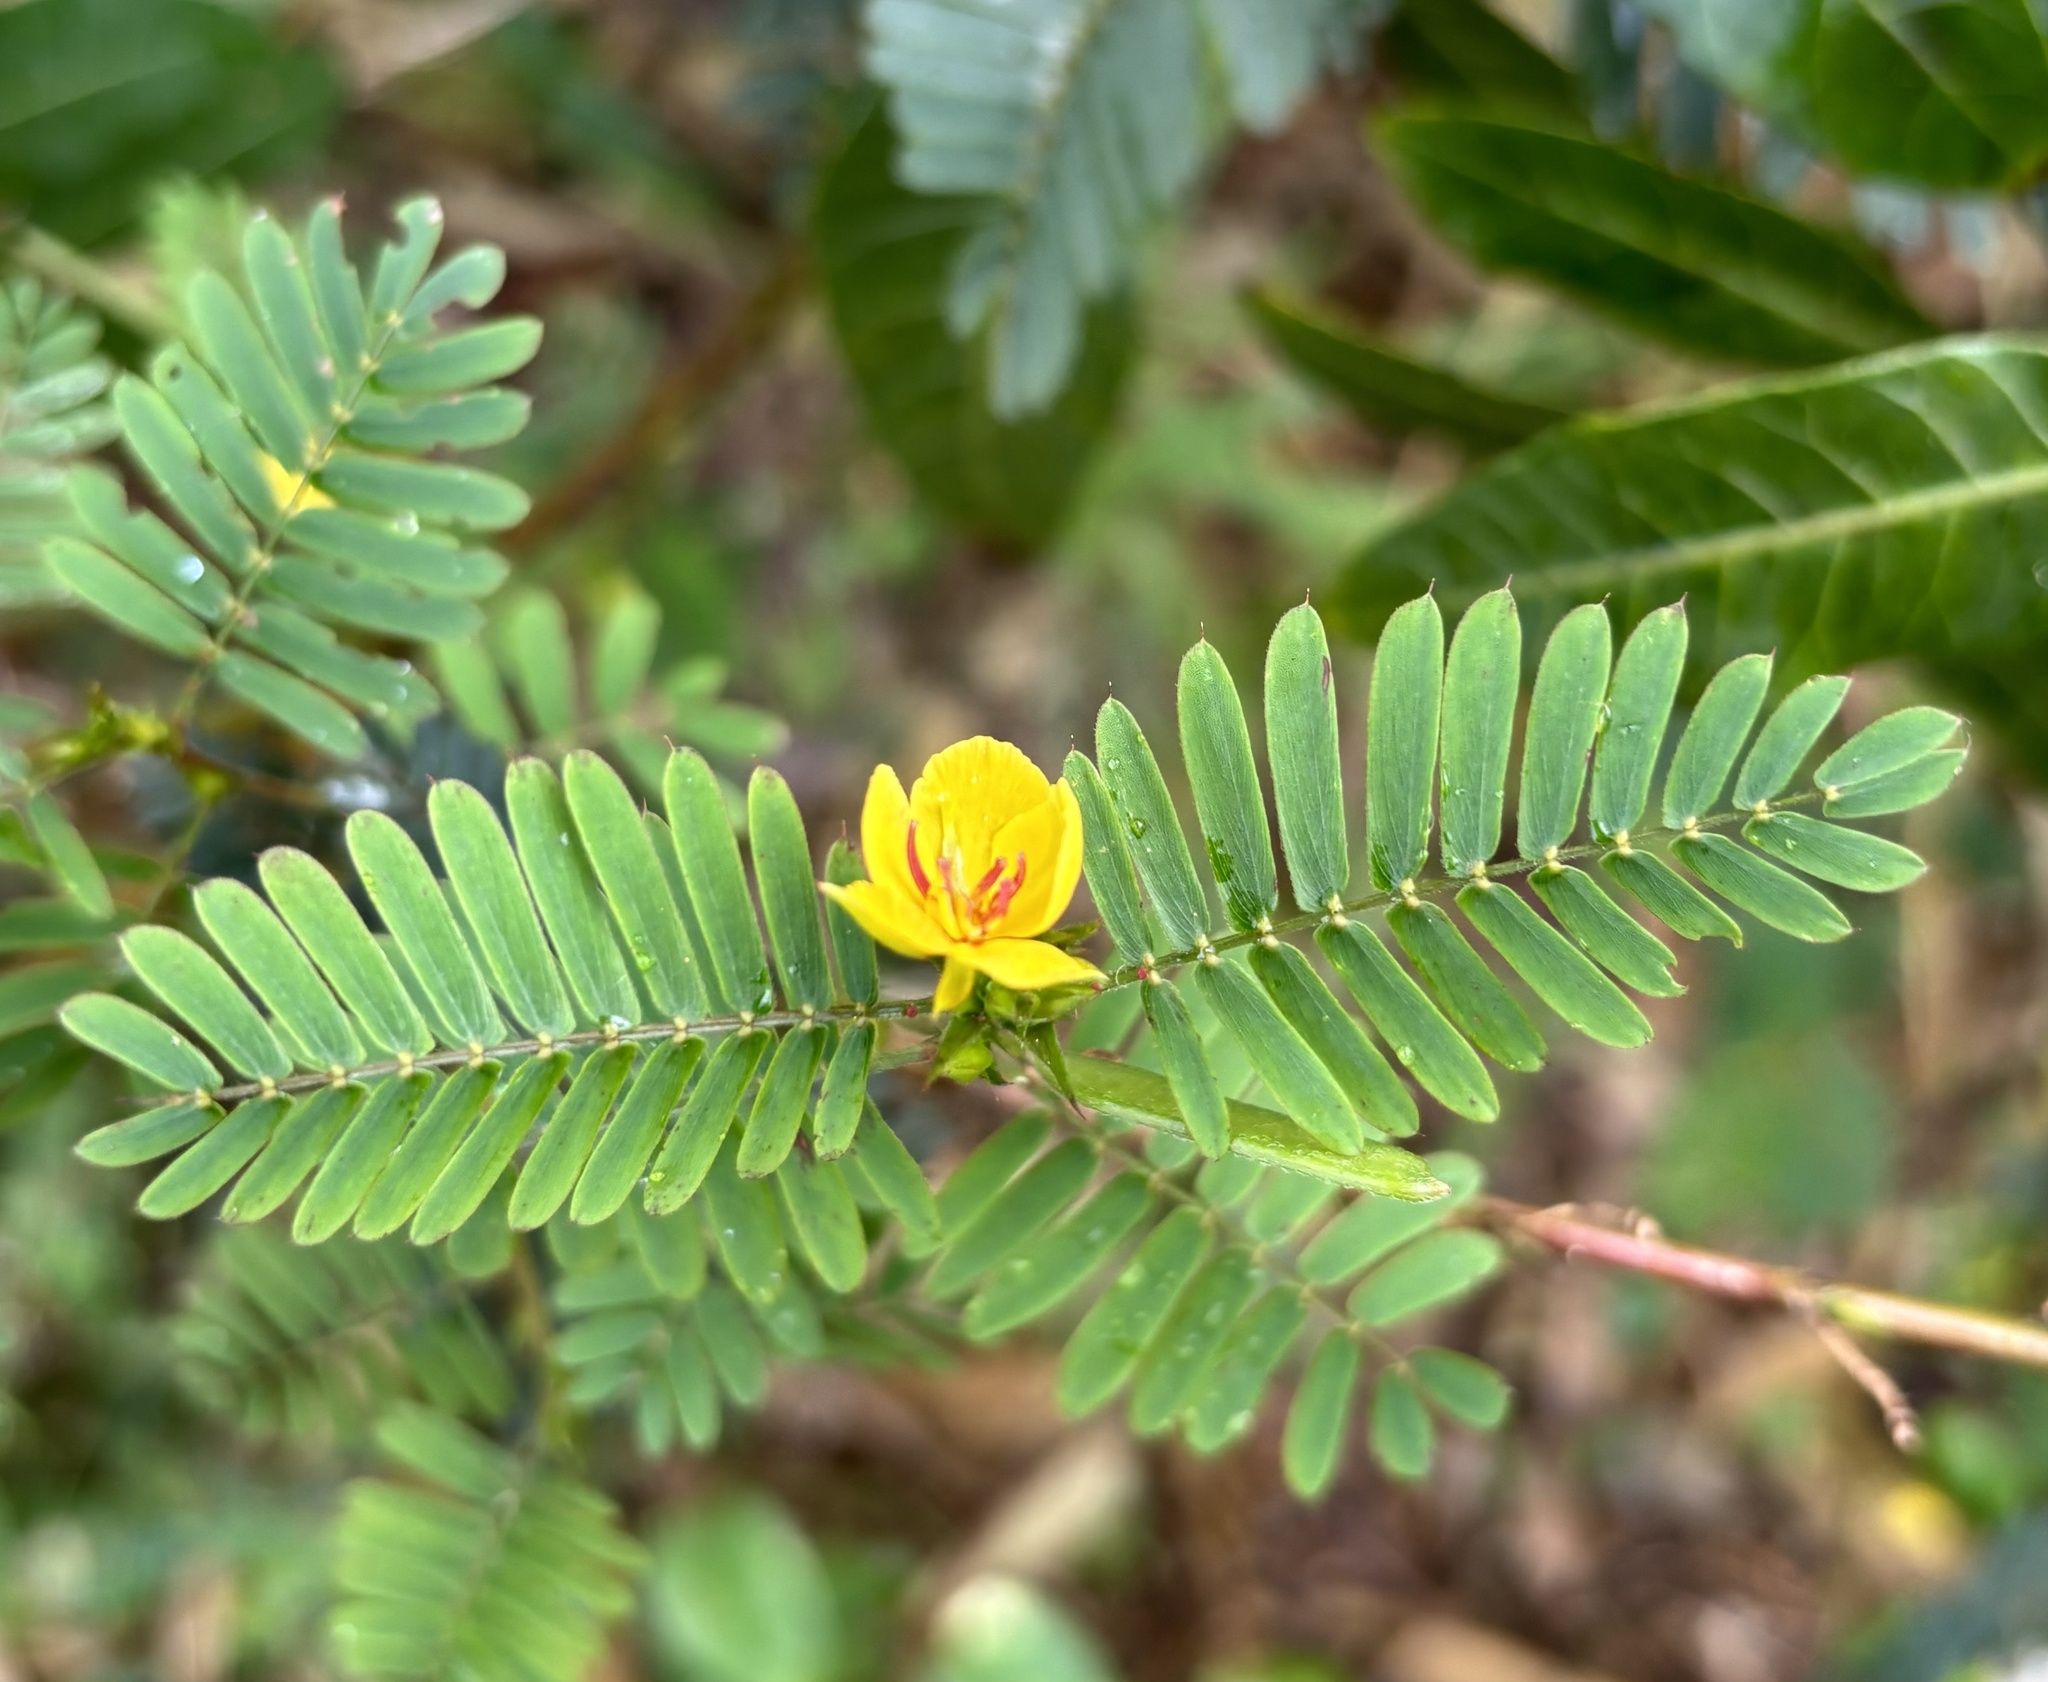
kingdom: Plantae
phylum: Tracheophyta
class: Magnoliopsida
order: Fabales
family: Fabaceae
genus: Chamaecrista
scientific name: Chamaecrista nictitans
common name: Sensitive cassia
